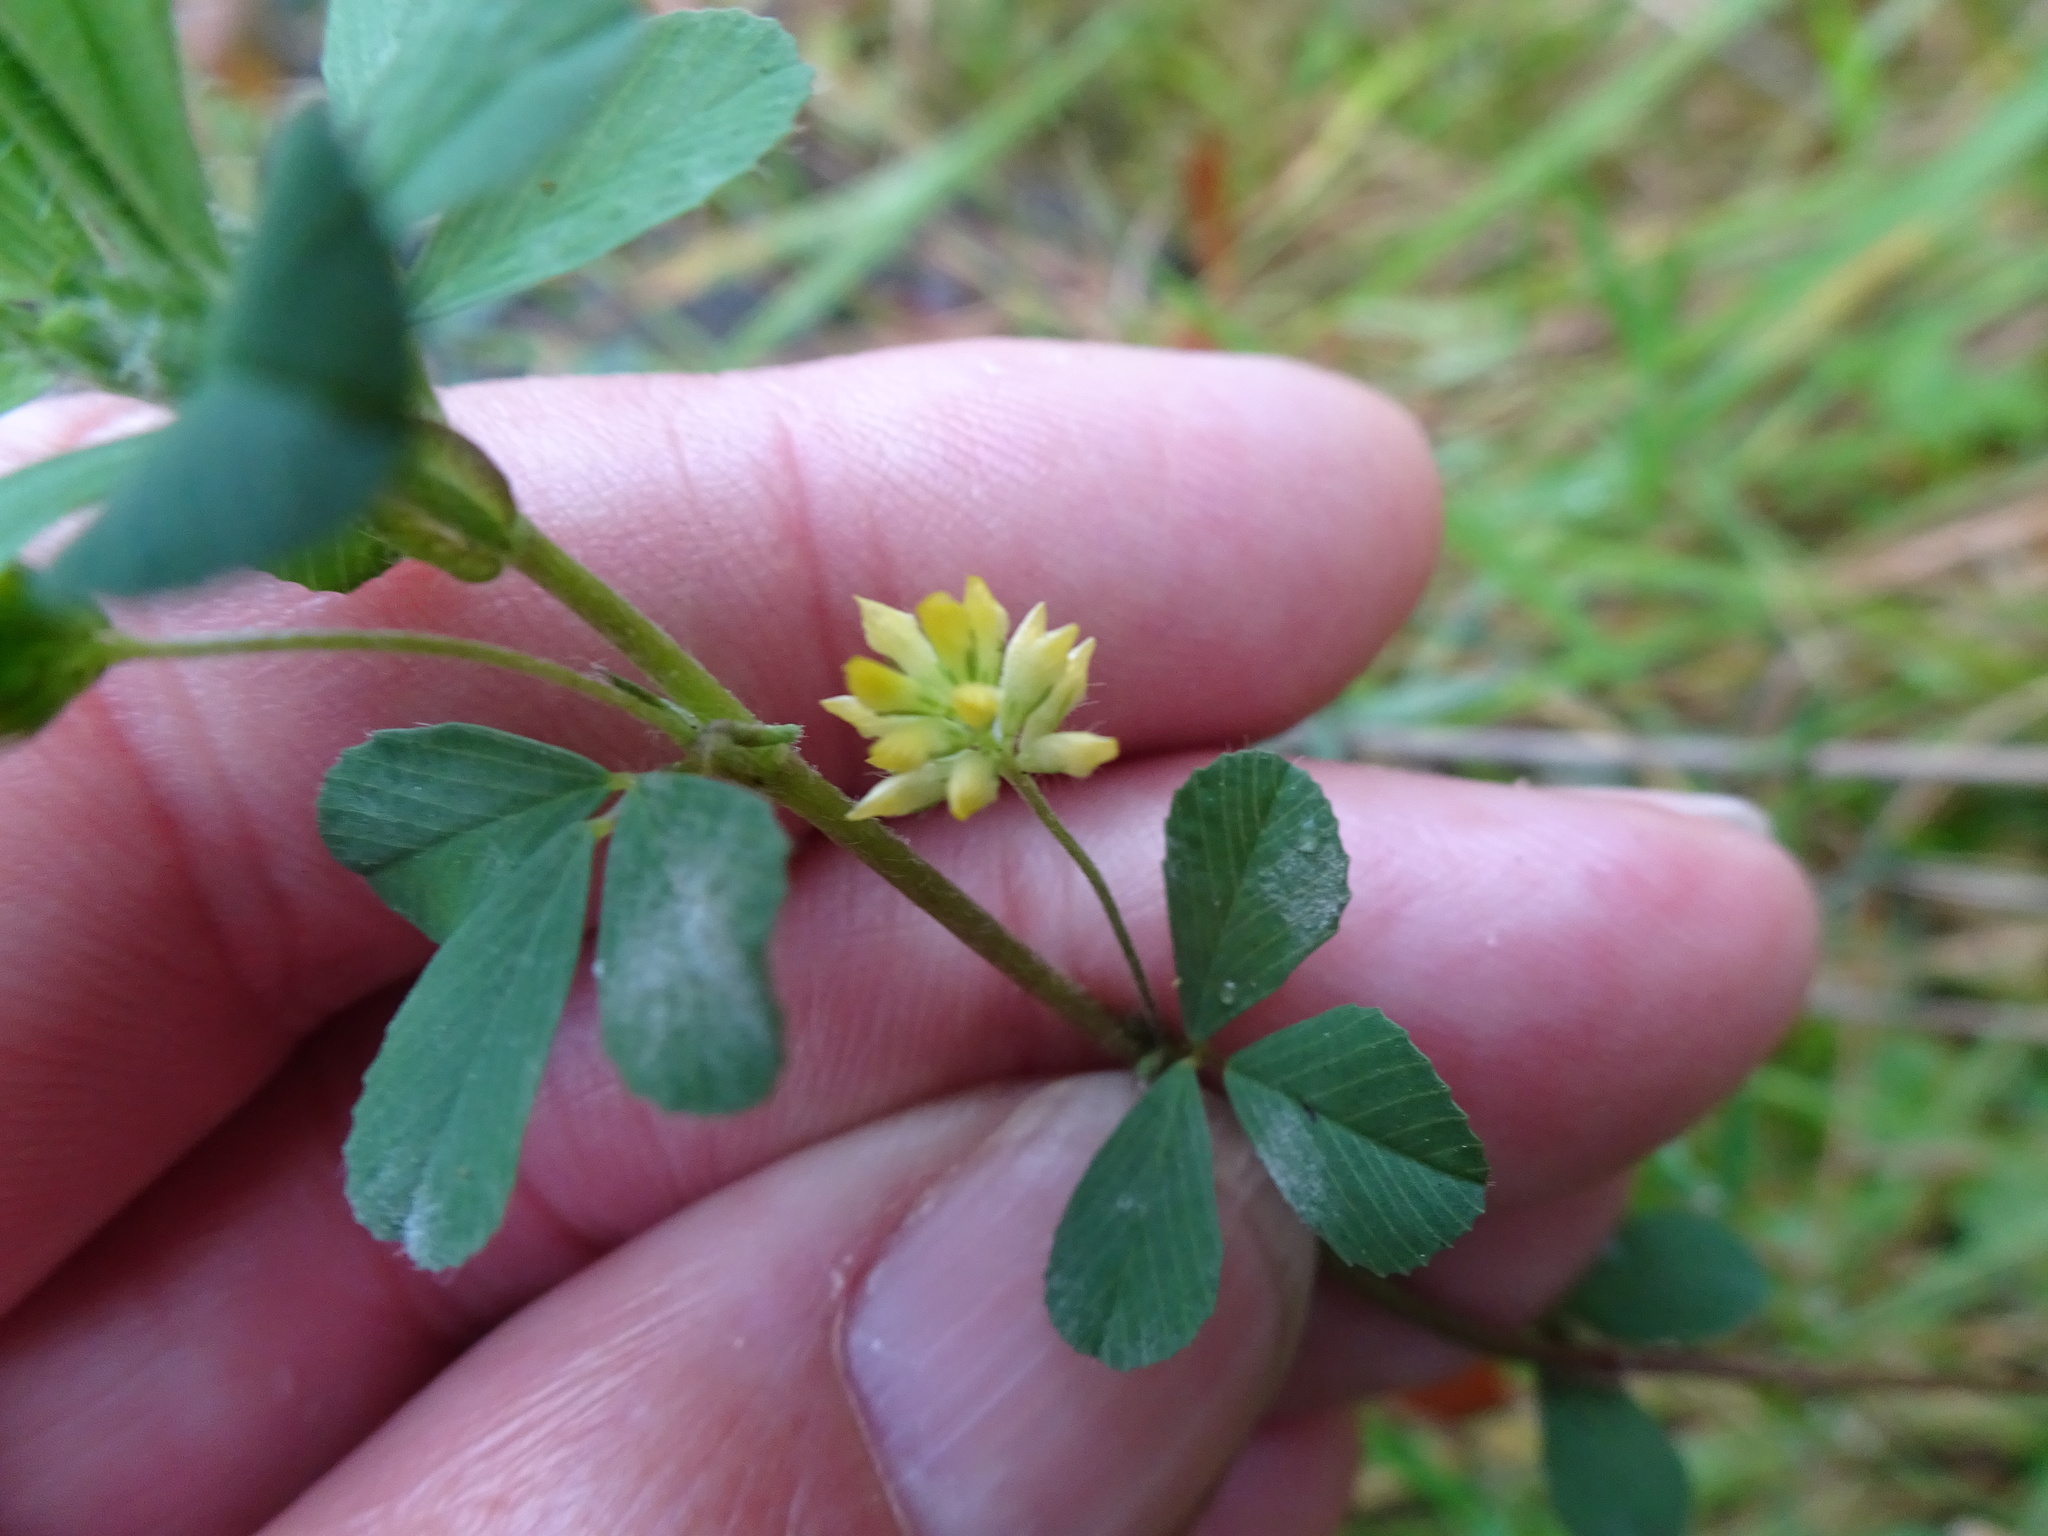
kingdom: Plantae
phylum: Tracheophyta
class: Magnoliopsida
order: Fabales
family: Fabaceae
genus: Trifolium
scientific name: Trifolium dubium
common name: Suckling clover
